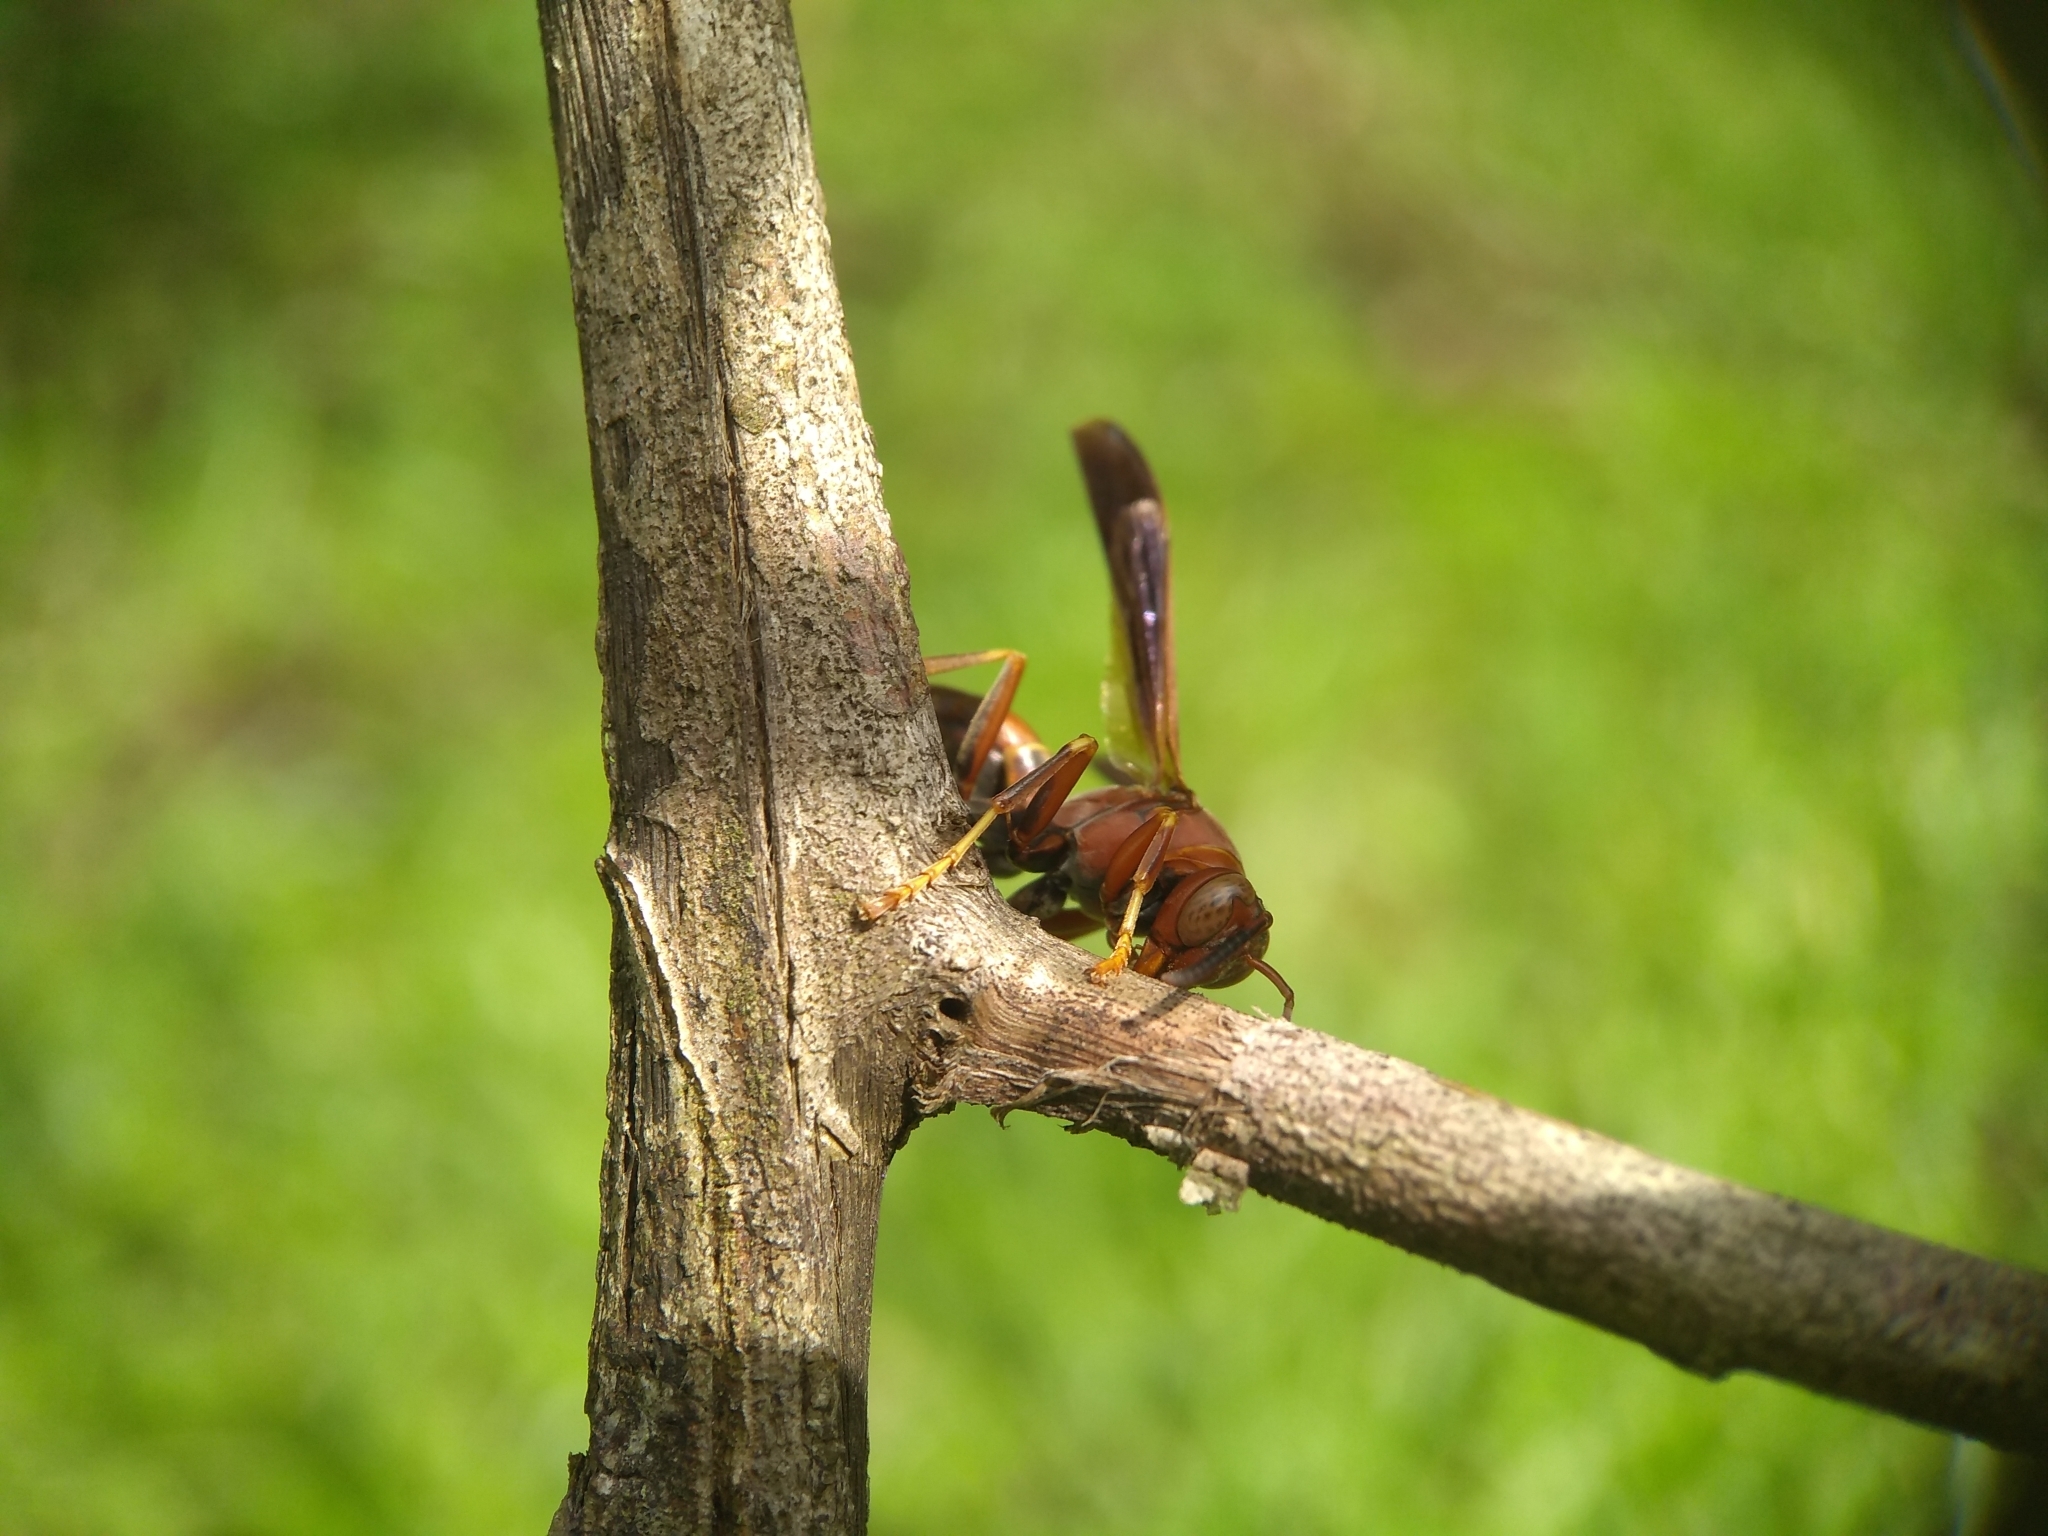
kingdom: Animalia
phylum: Arthropoda
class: Insecta
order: Hymenoptera
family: Vespidae
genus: Fuscopolistes
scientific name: Fuscopolistes
